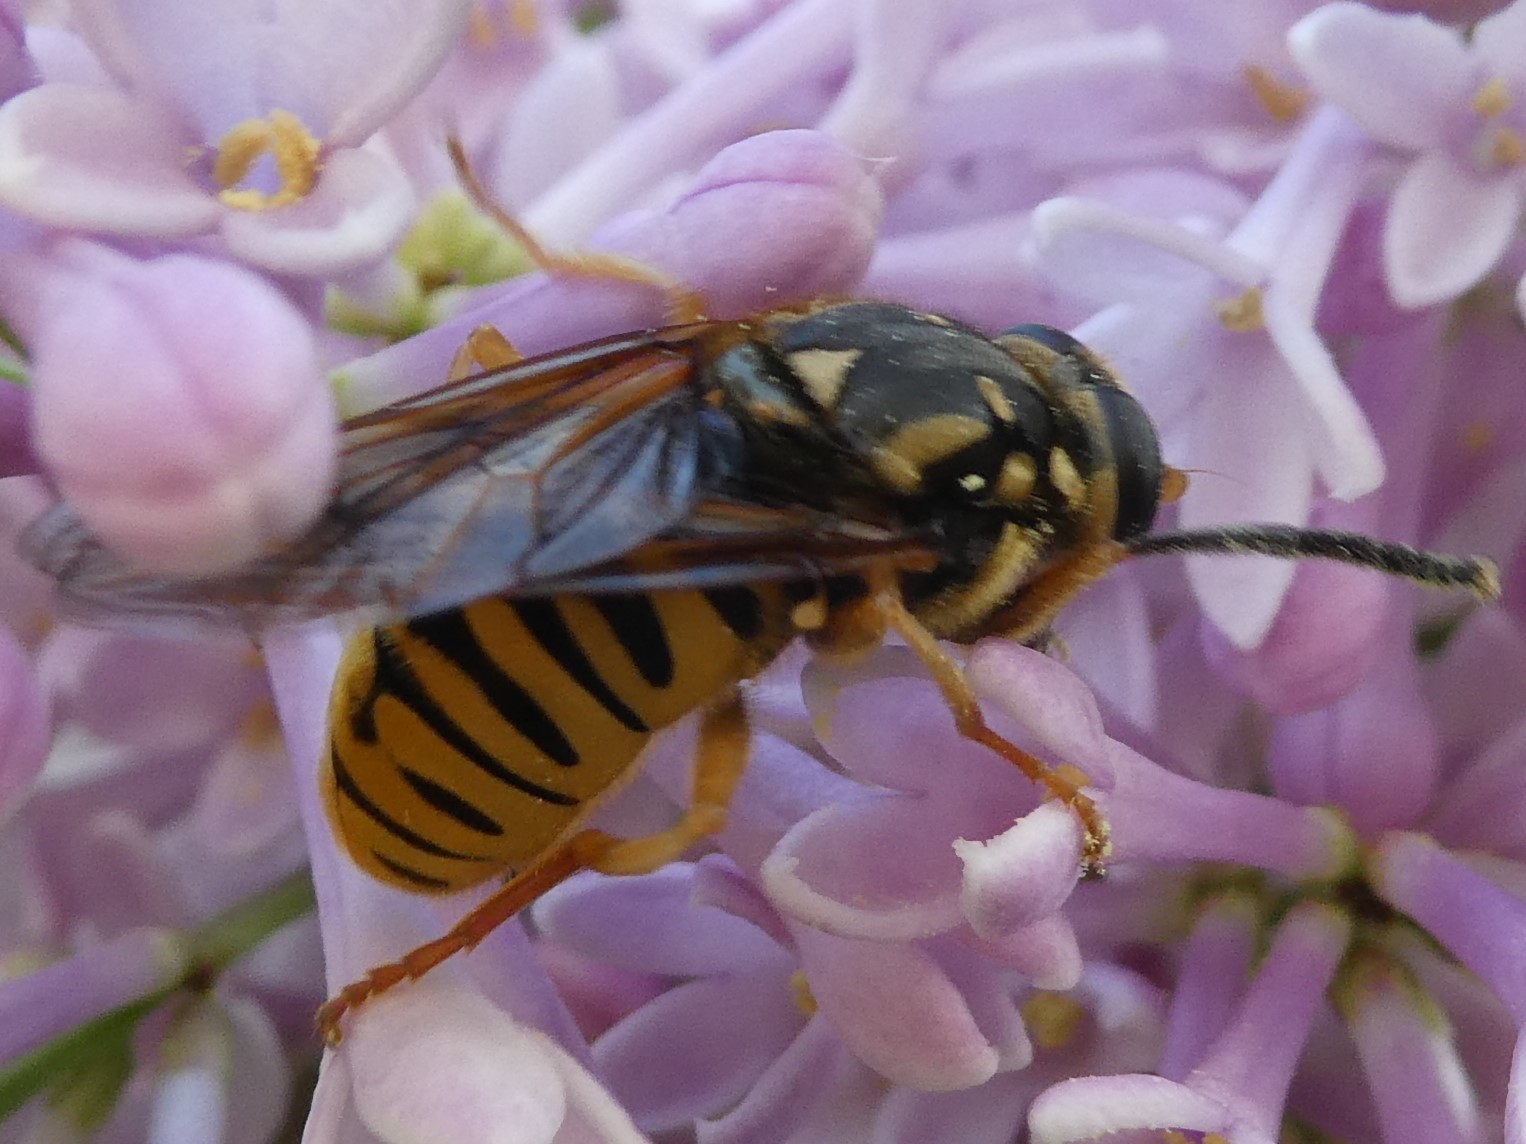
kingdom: Animalia
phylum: Arthropoda
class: Insecta
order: Diptera
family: Syrphidae
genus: Temnostoma
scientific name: Temnostoma alternans
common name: Wasp-like falsehorn
